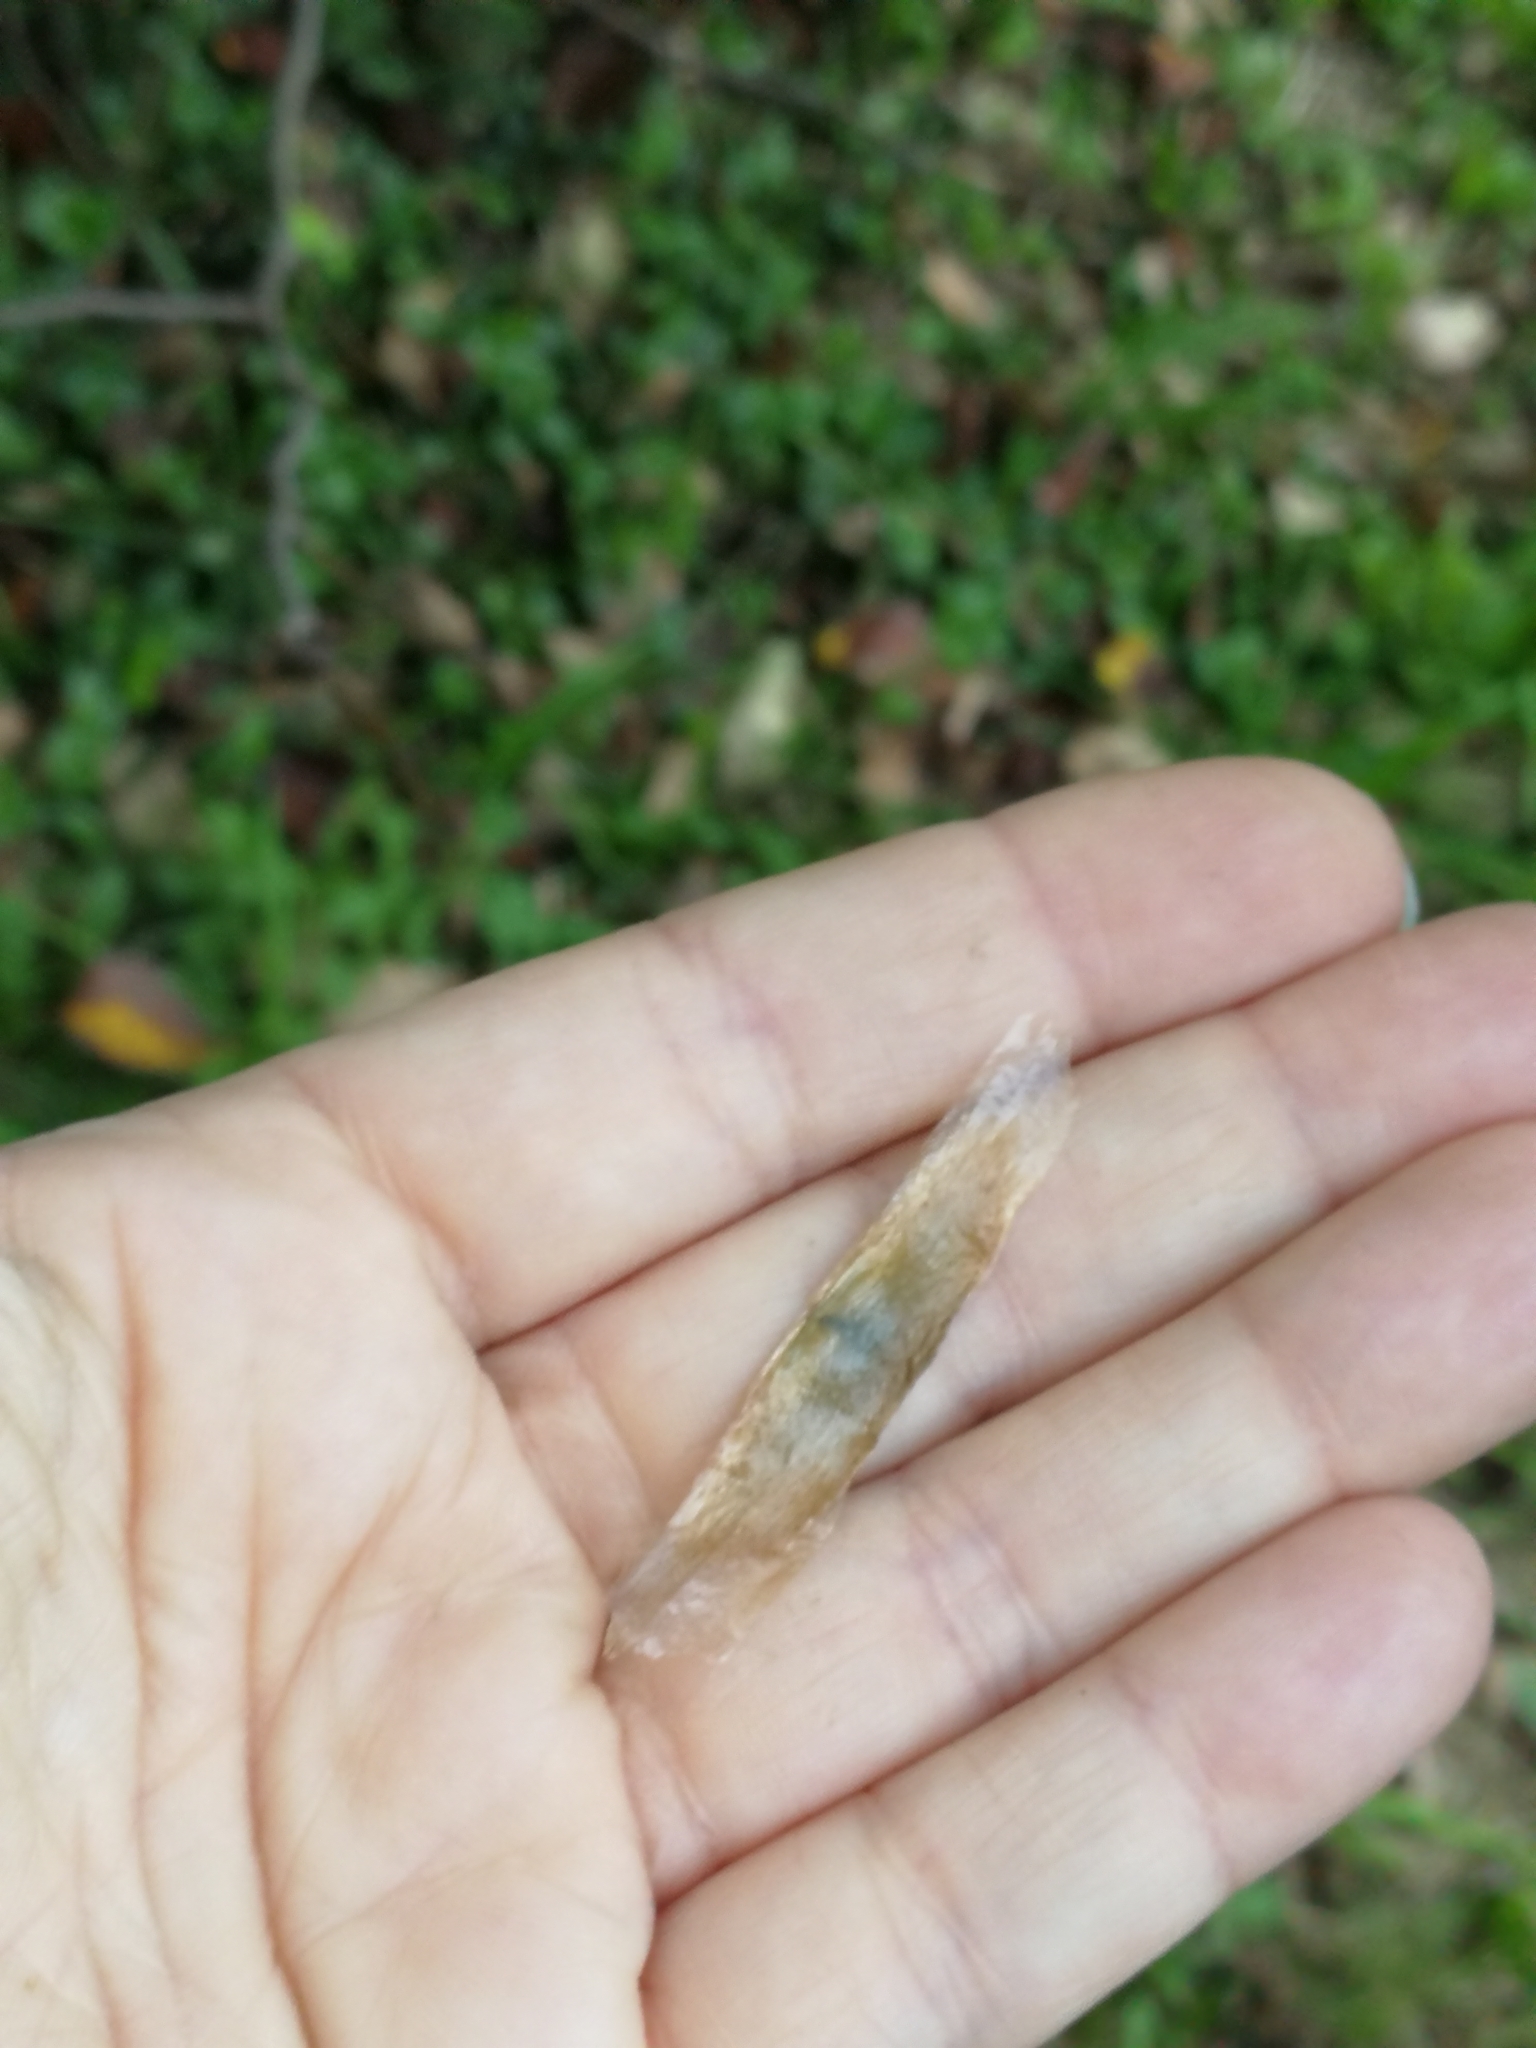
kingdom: Plantae
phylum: Tracheophyta
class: Magnoliopsida
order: Lamiales
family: Bignoniaceae
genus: Dolichandra
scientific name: Dolichandra unguis-cati
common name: Catclaw vine
